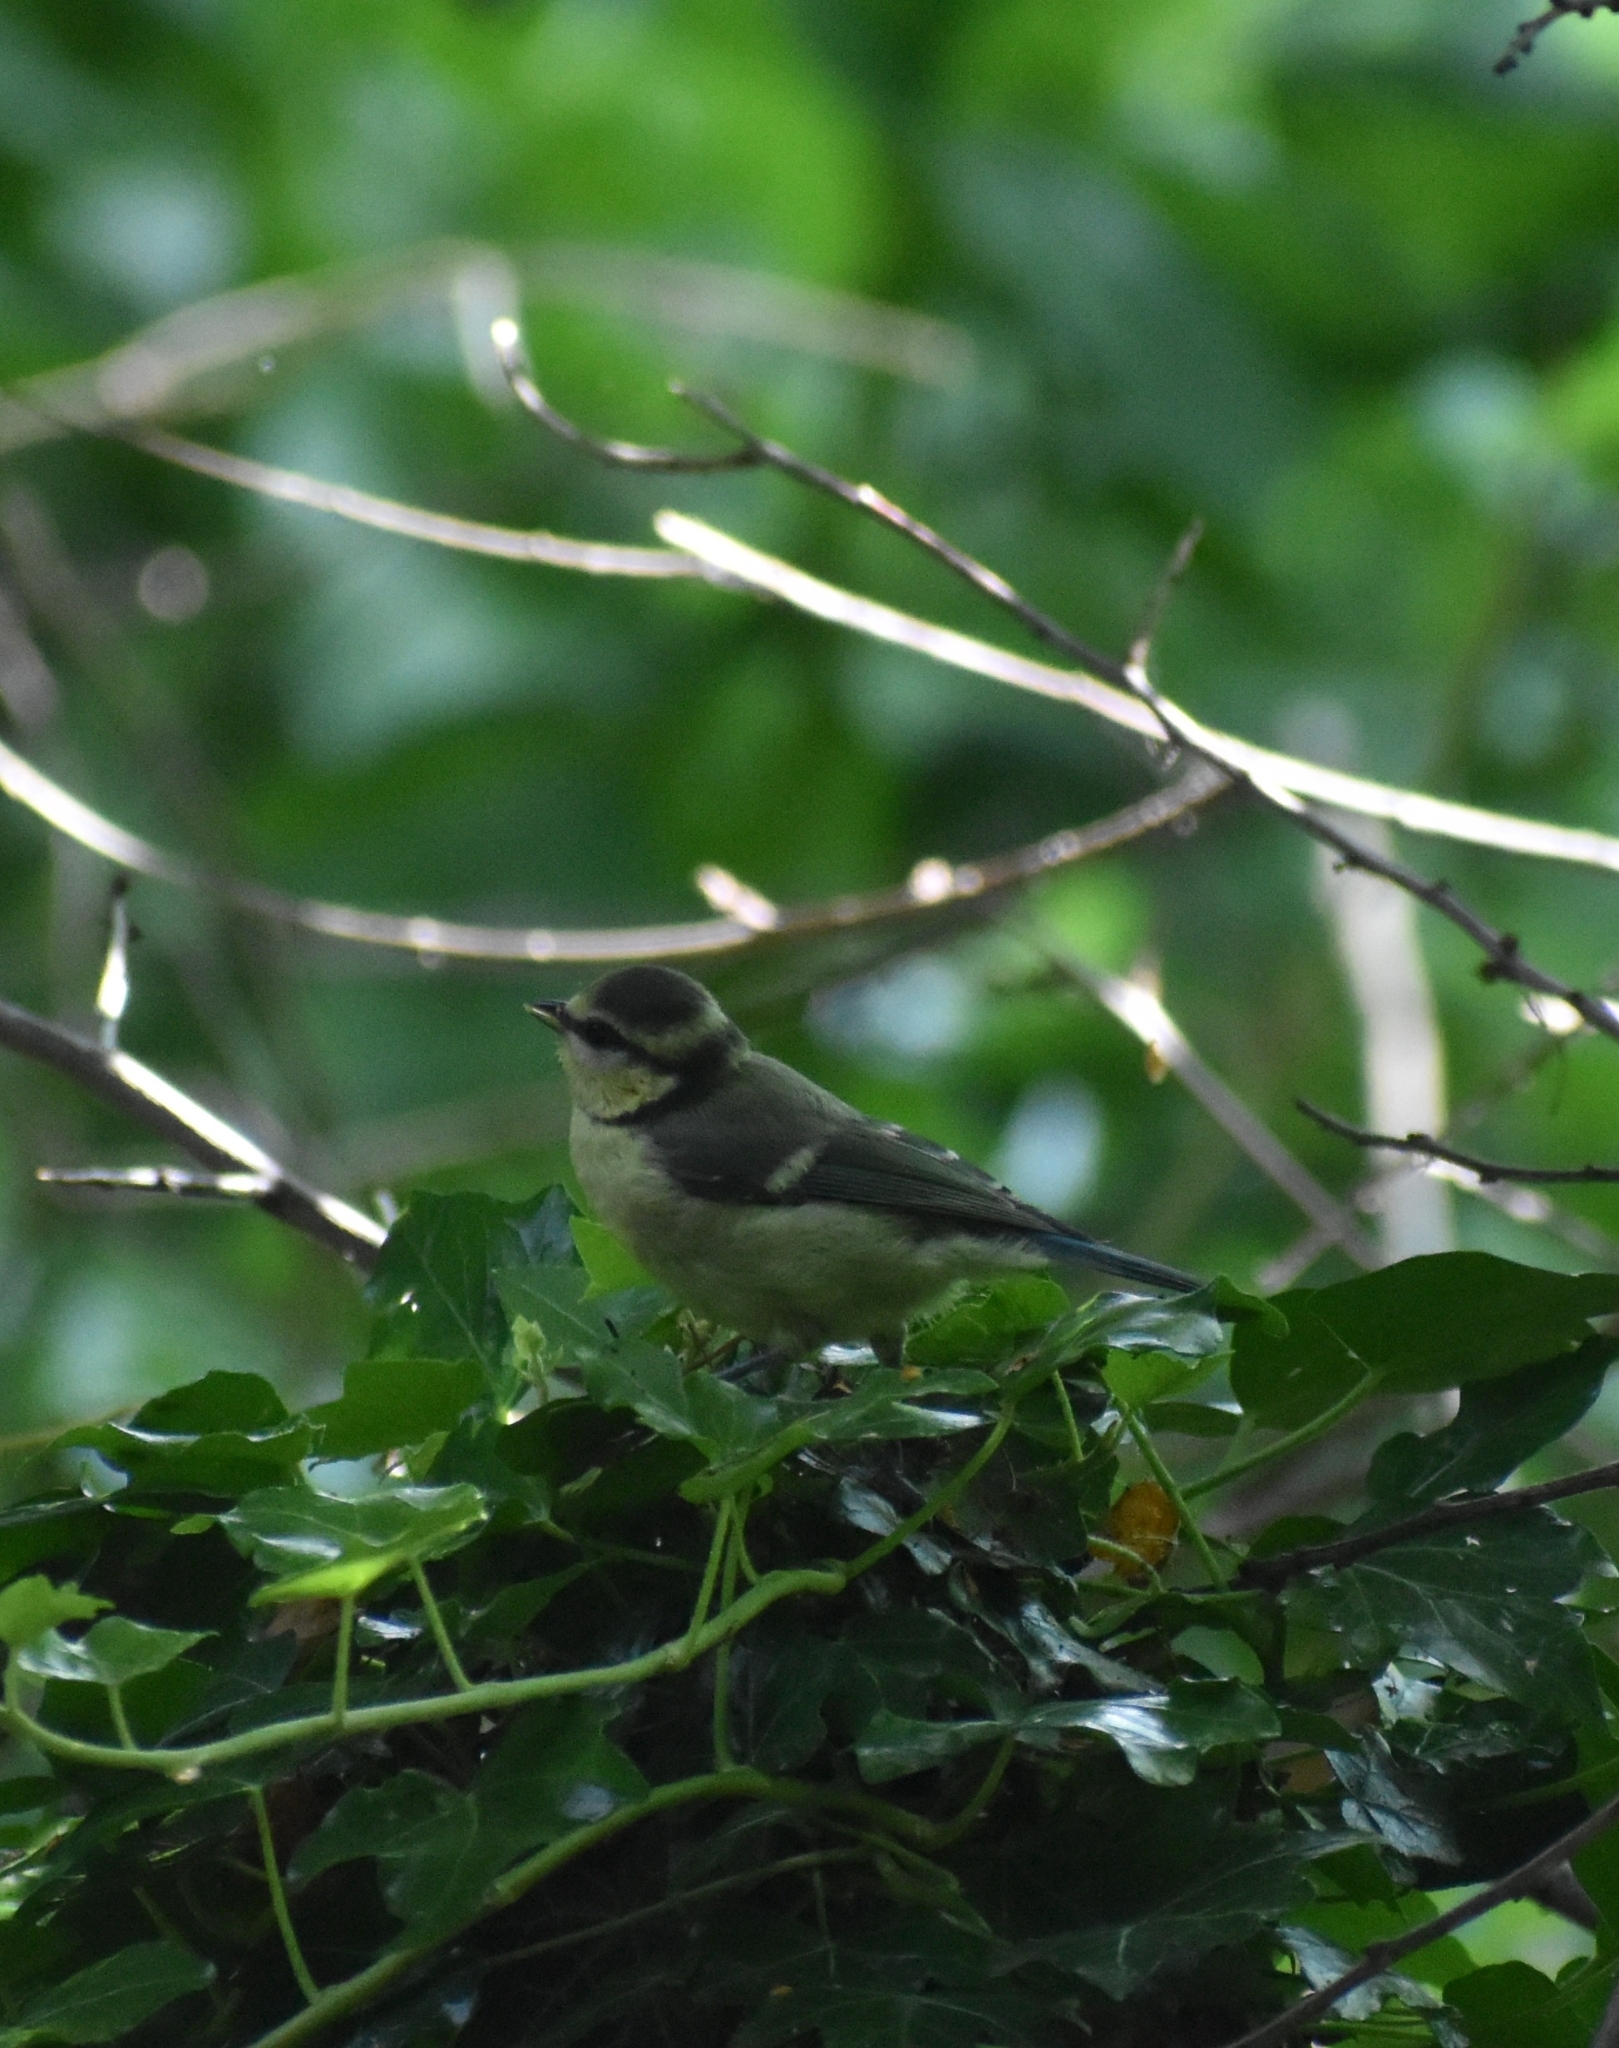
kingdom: Animalia
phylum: Chordata
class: Aves
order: Passeriformes
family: Paridae
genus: Cyanistes
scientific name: Cyanistes caeruleus
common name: Eurasian blue tit
